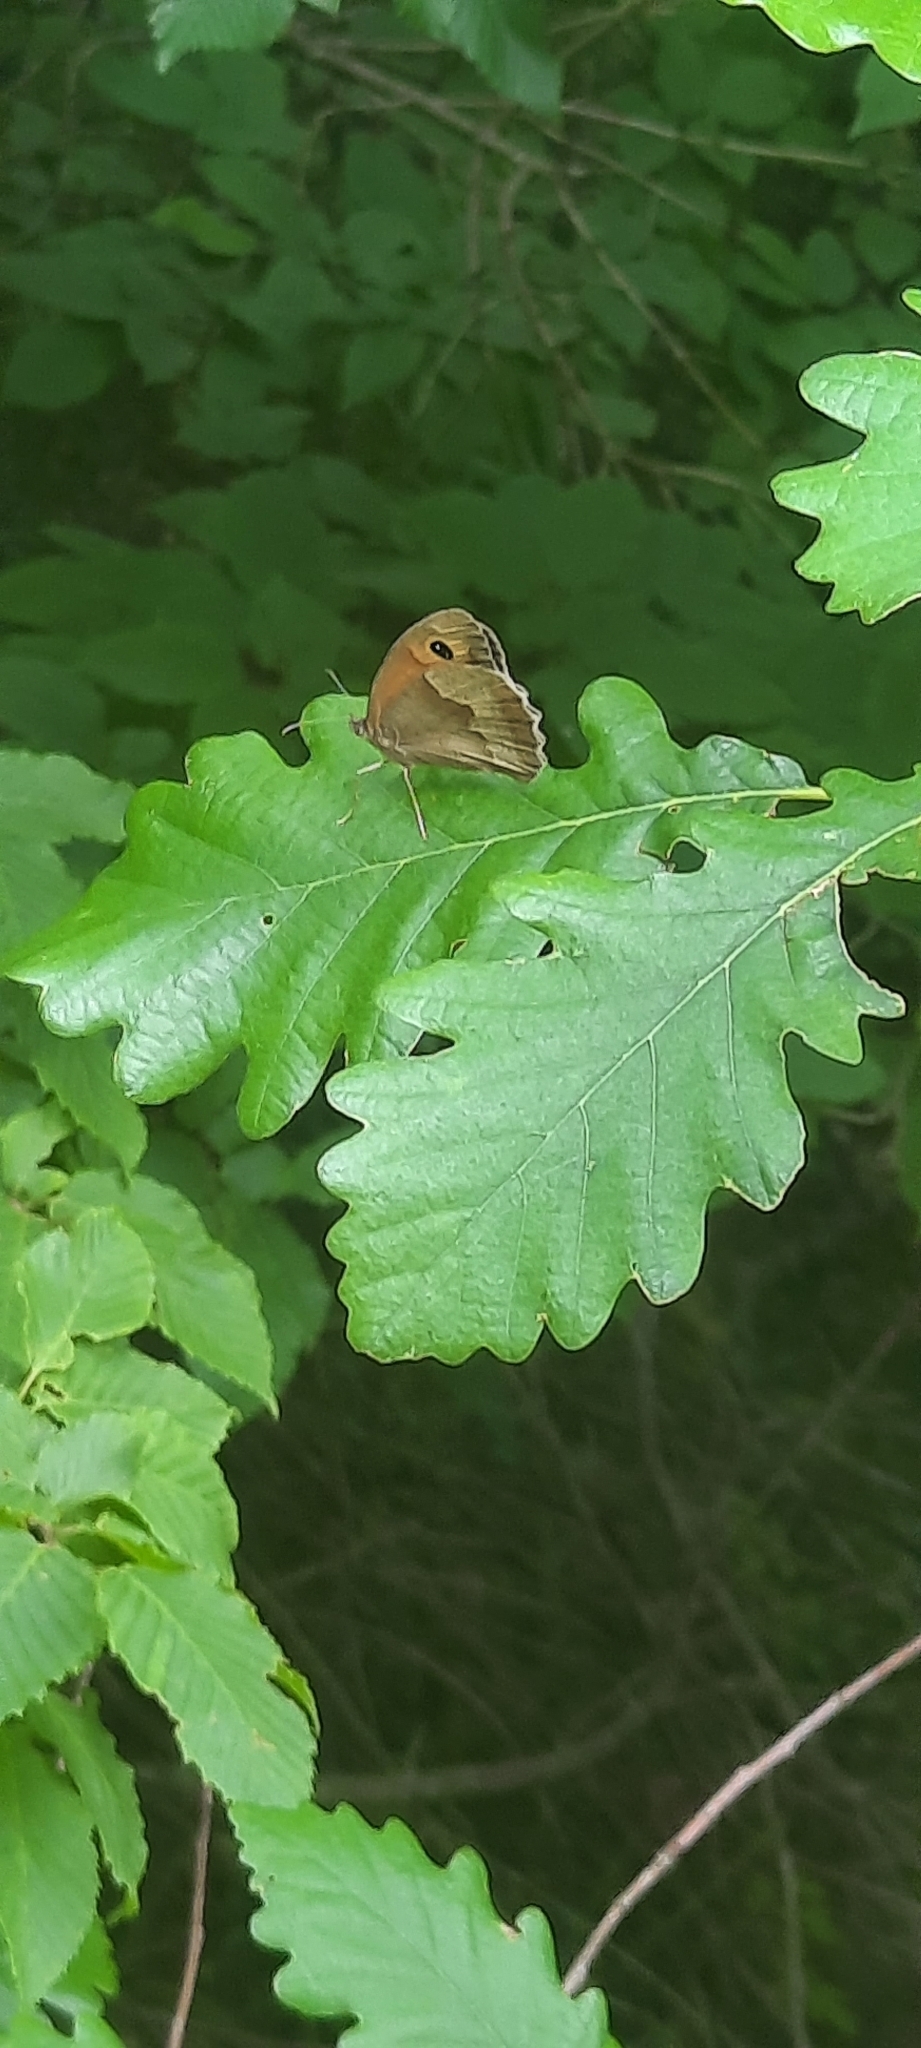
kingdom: Animalia
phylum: Arthropoda
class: Insecta
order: Lepidoptera
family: Nymphalidae
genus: Maniola
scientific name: Maniola jurtina
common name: Meadow brown
